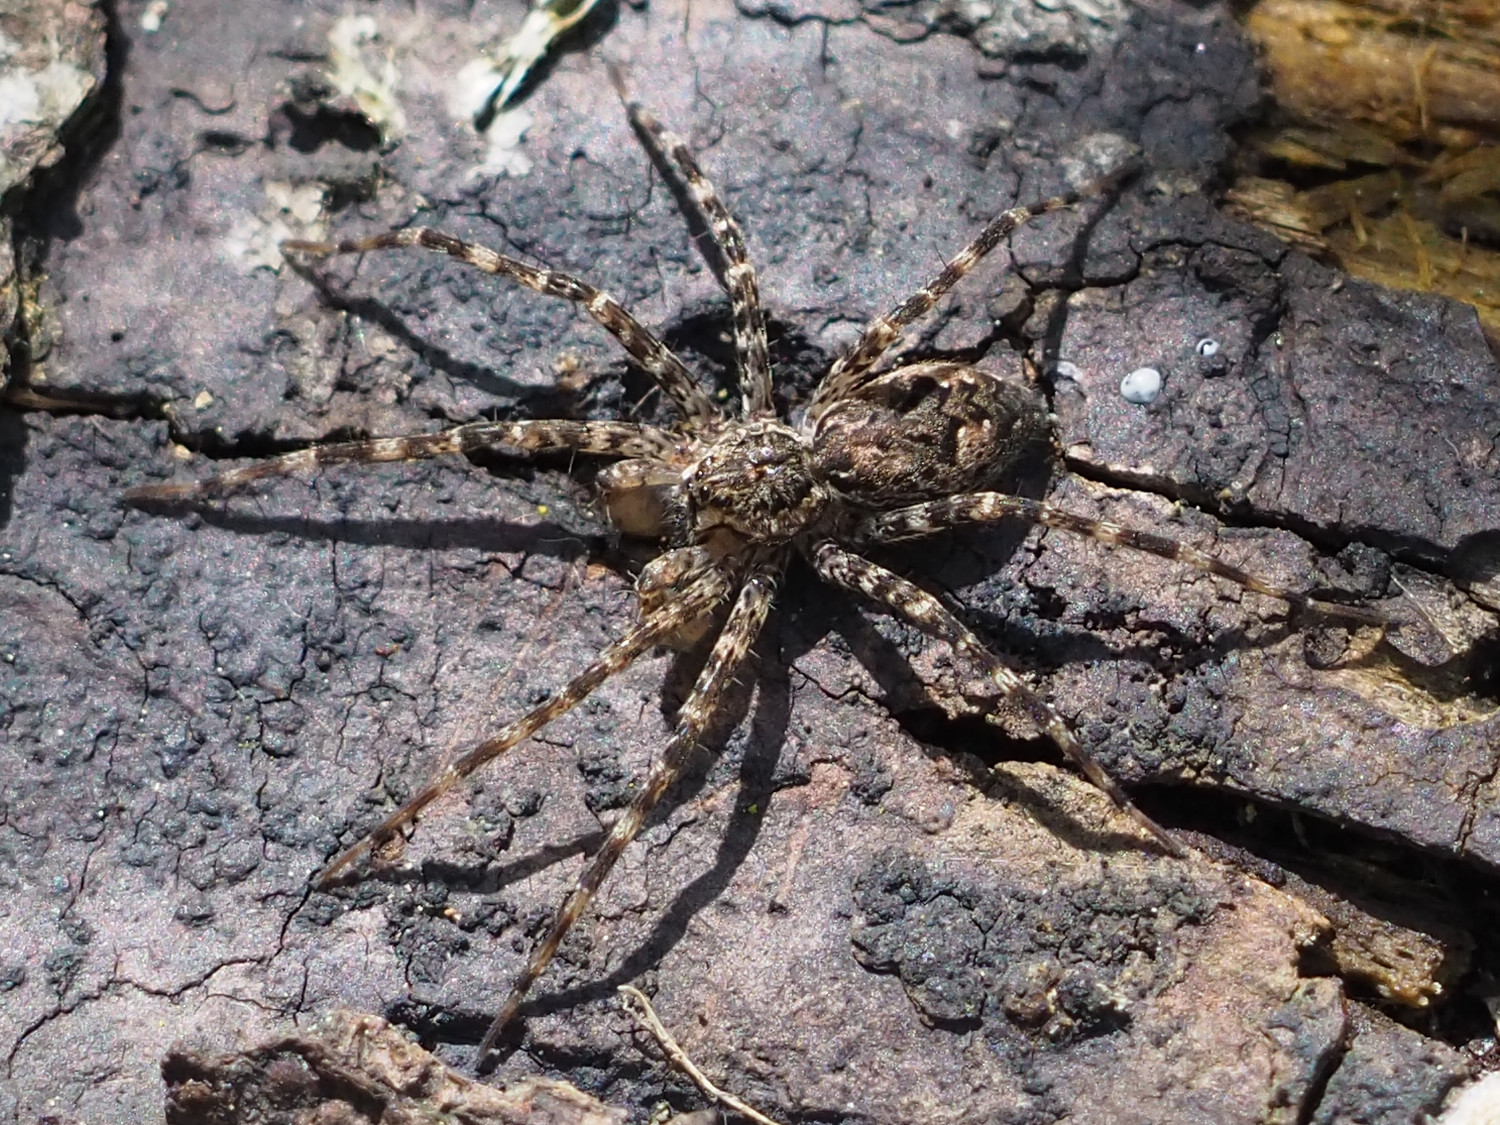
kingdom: Animalia
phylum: Arthropoda
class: Arachnida
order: Araneae
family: Pisauridae
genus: Dolomedes
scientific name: Dolomedes tenebrosus
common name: Dark fishing spider
